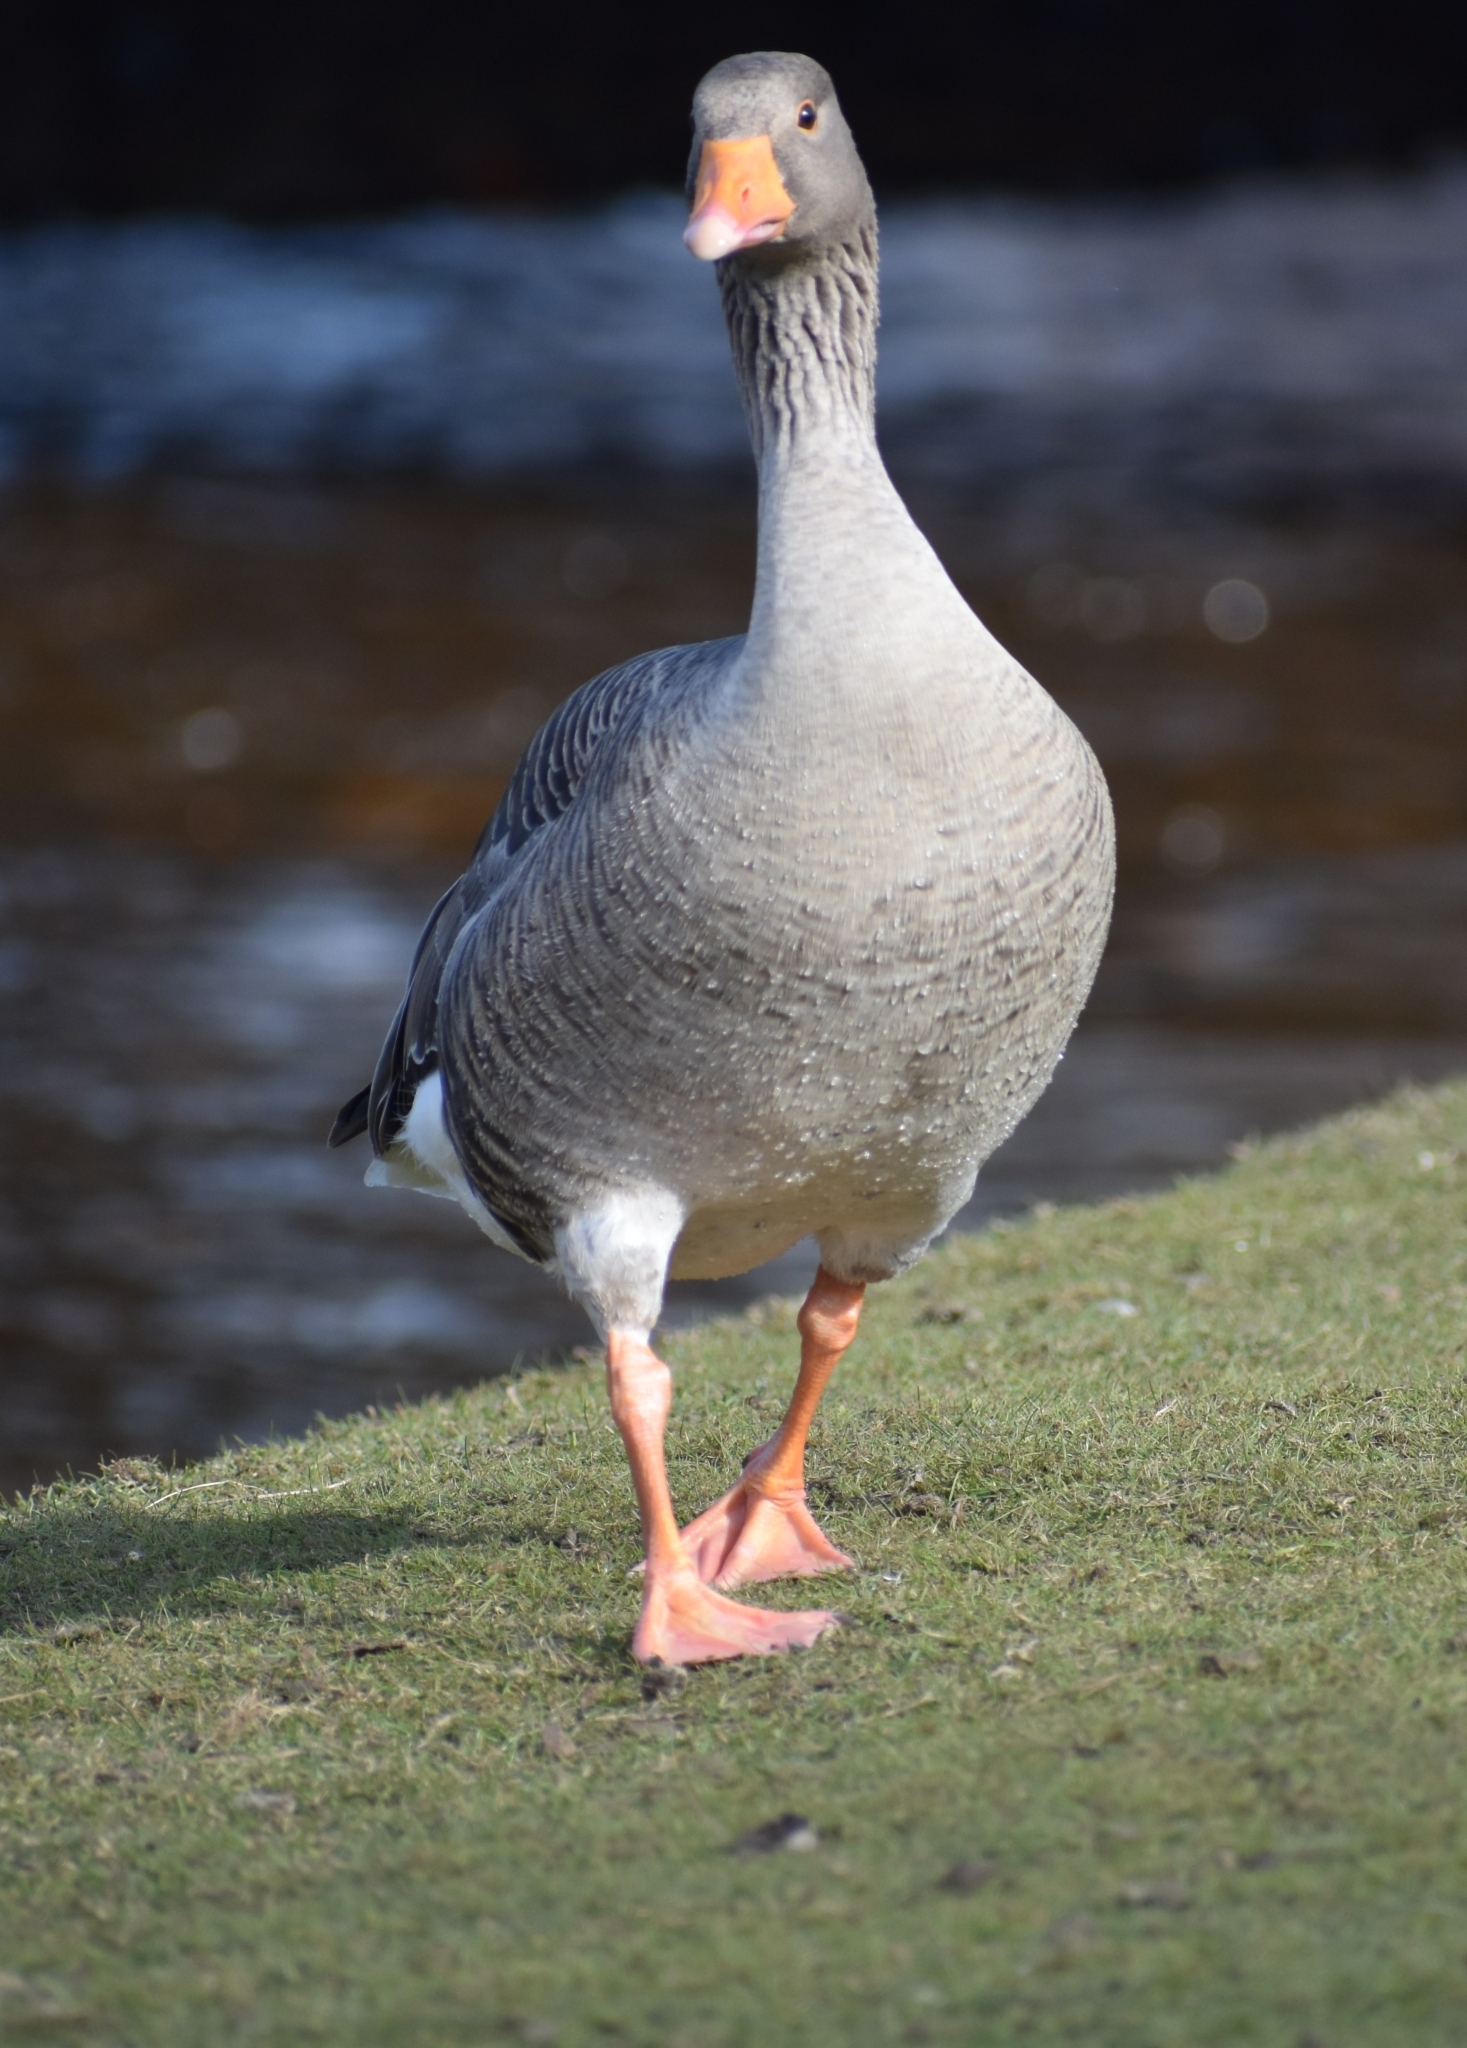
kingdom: Animalia
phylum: Chordata
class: Aves
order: Anseriformes
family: Anatidae
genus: Anser
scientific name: Anser anser
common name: Greylag goose
